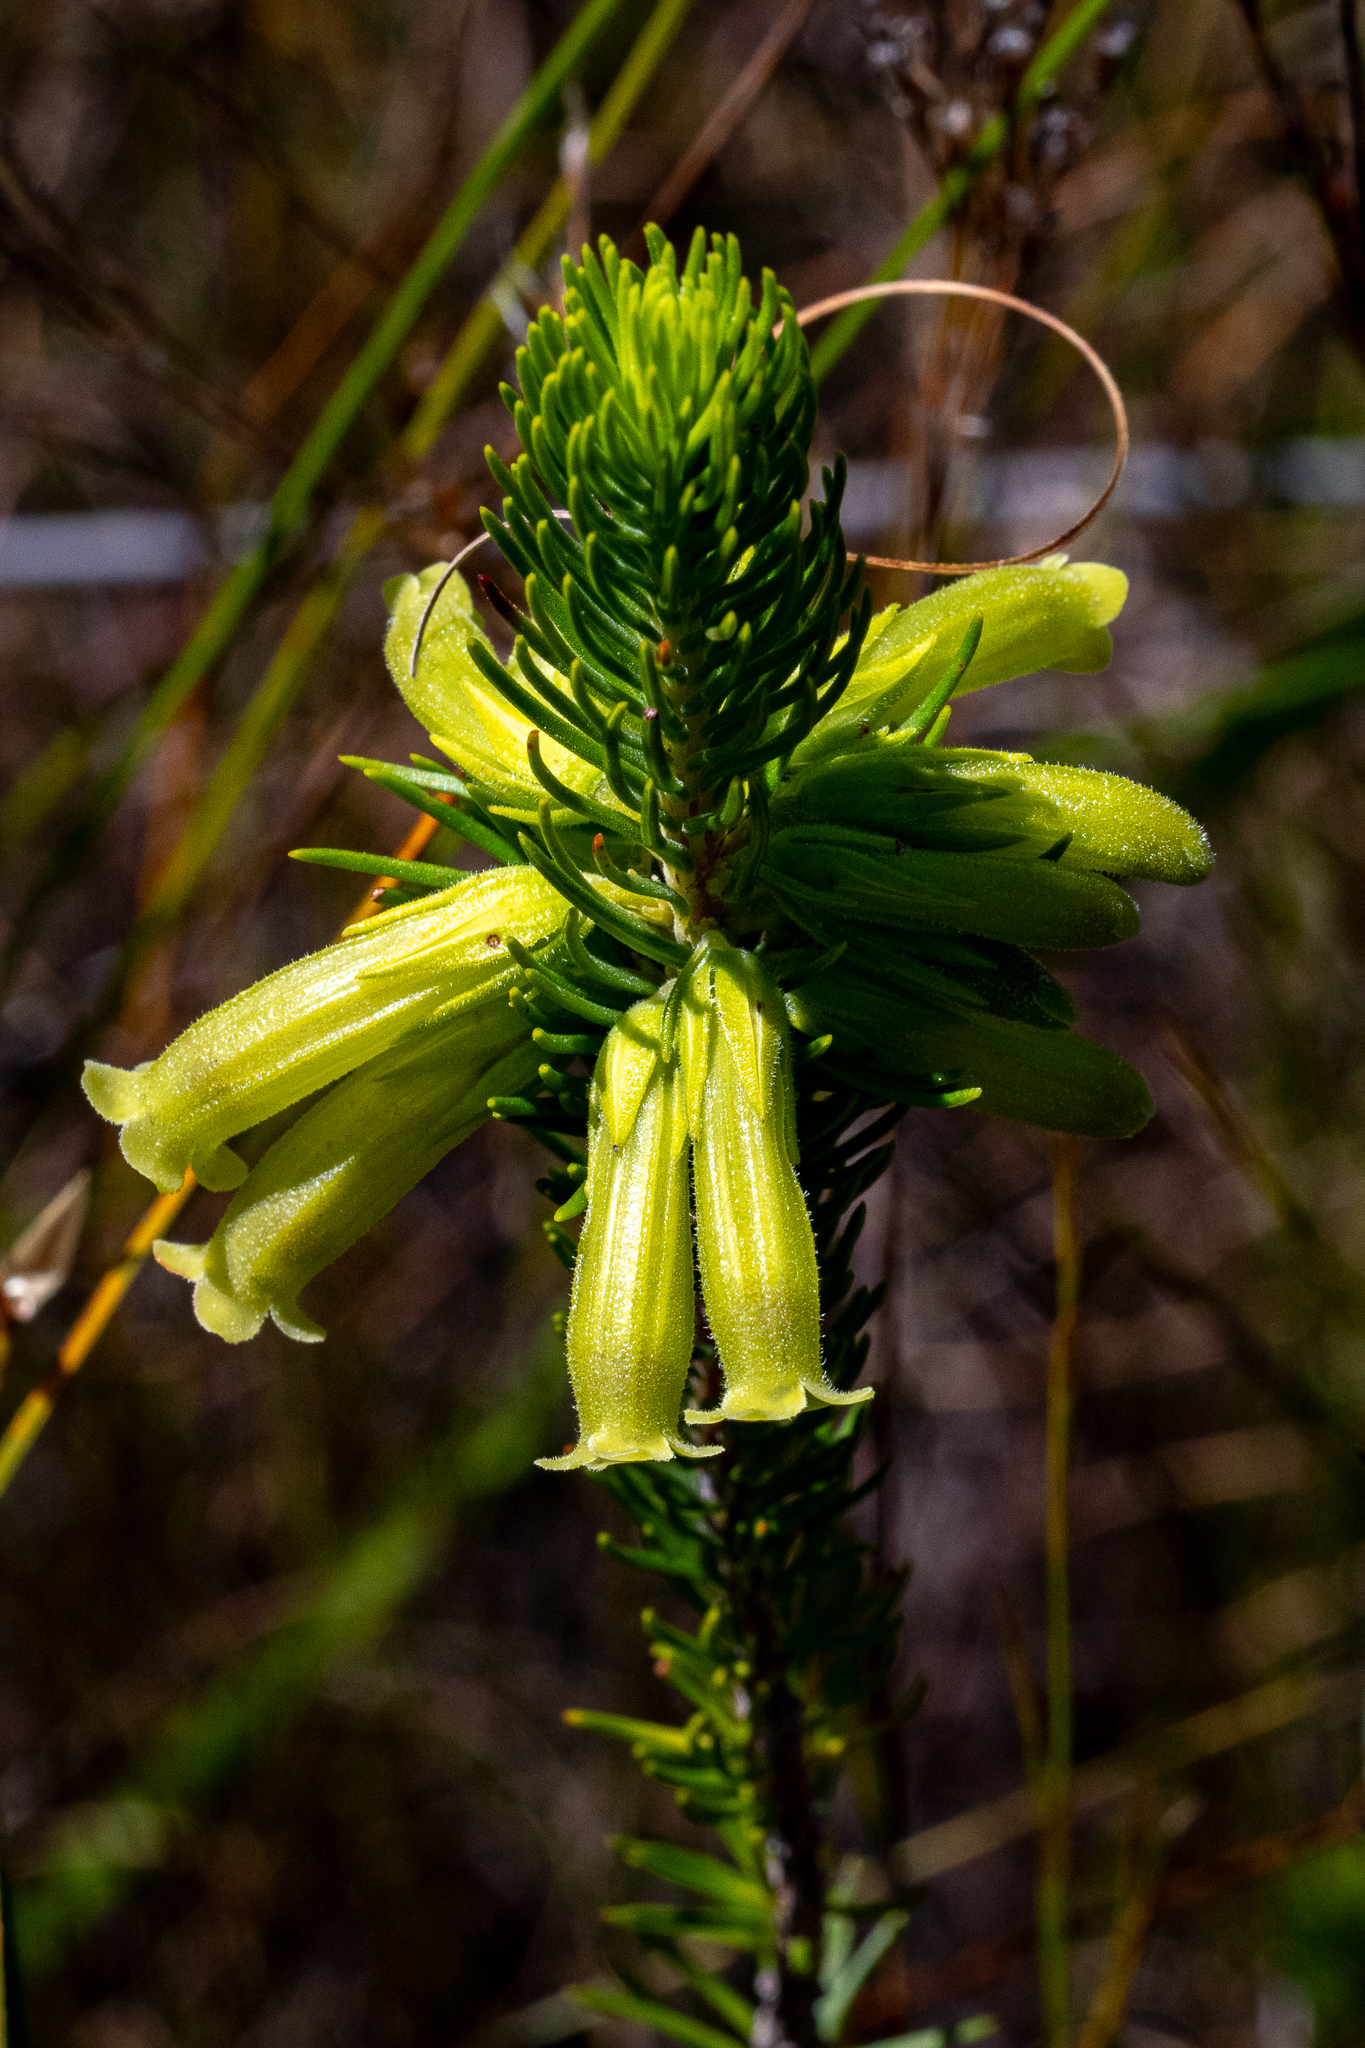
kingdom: Plantae
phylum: Tracheophyta
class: Magnoliopsida
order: Ericales
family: Ericaceae
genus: Erica
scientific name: Erica viscaria
